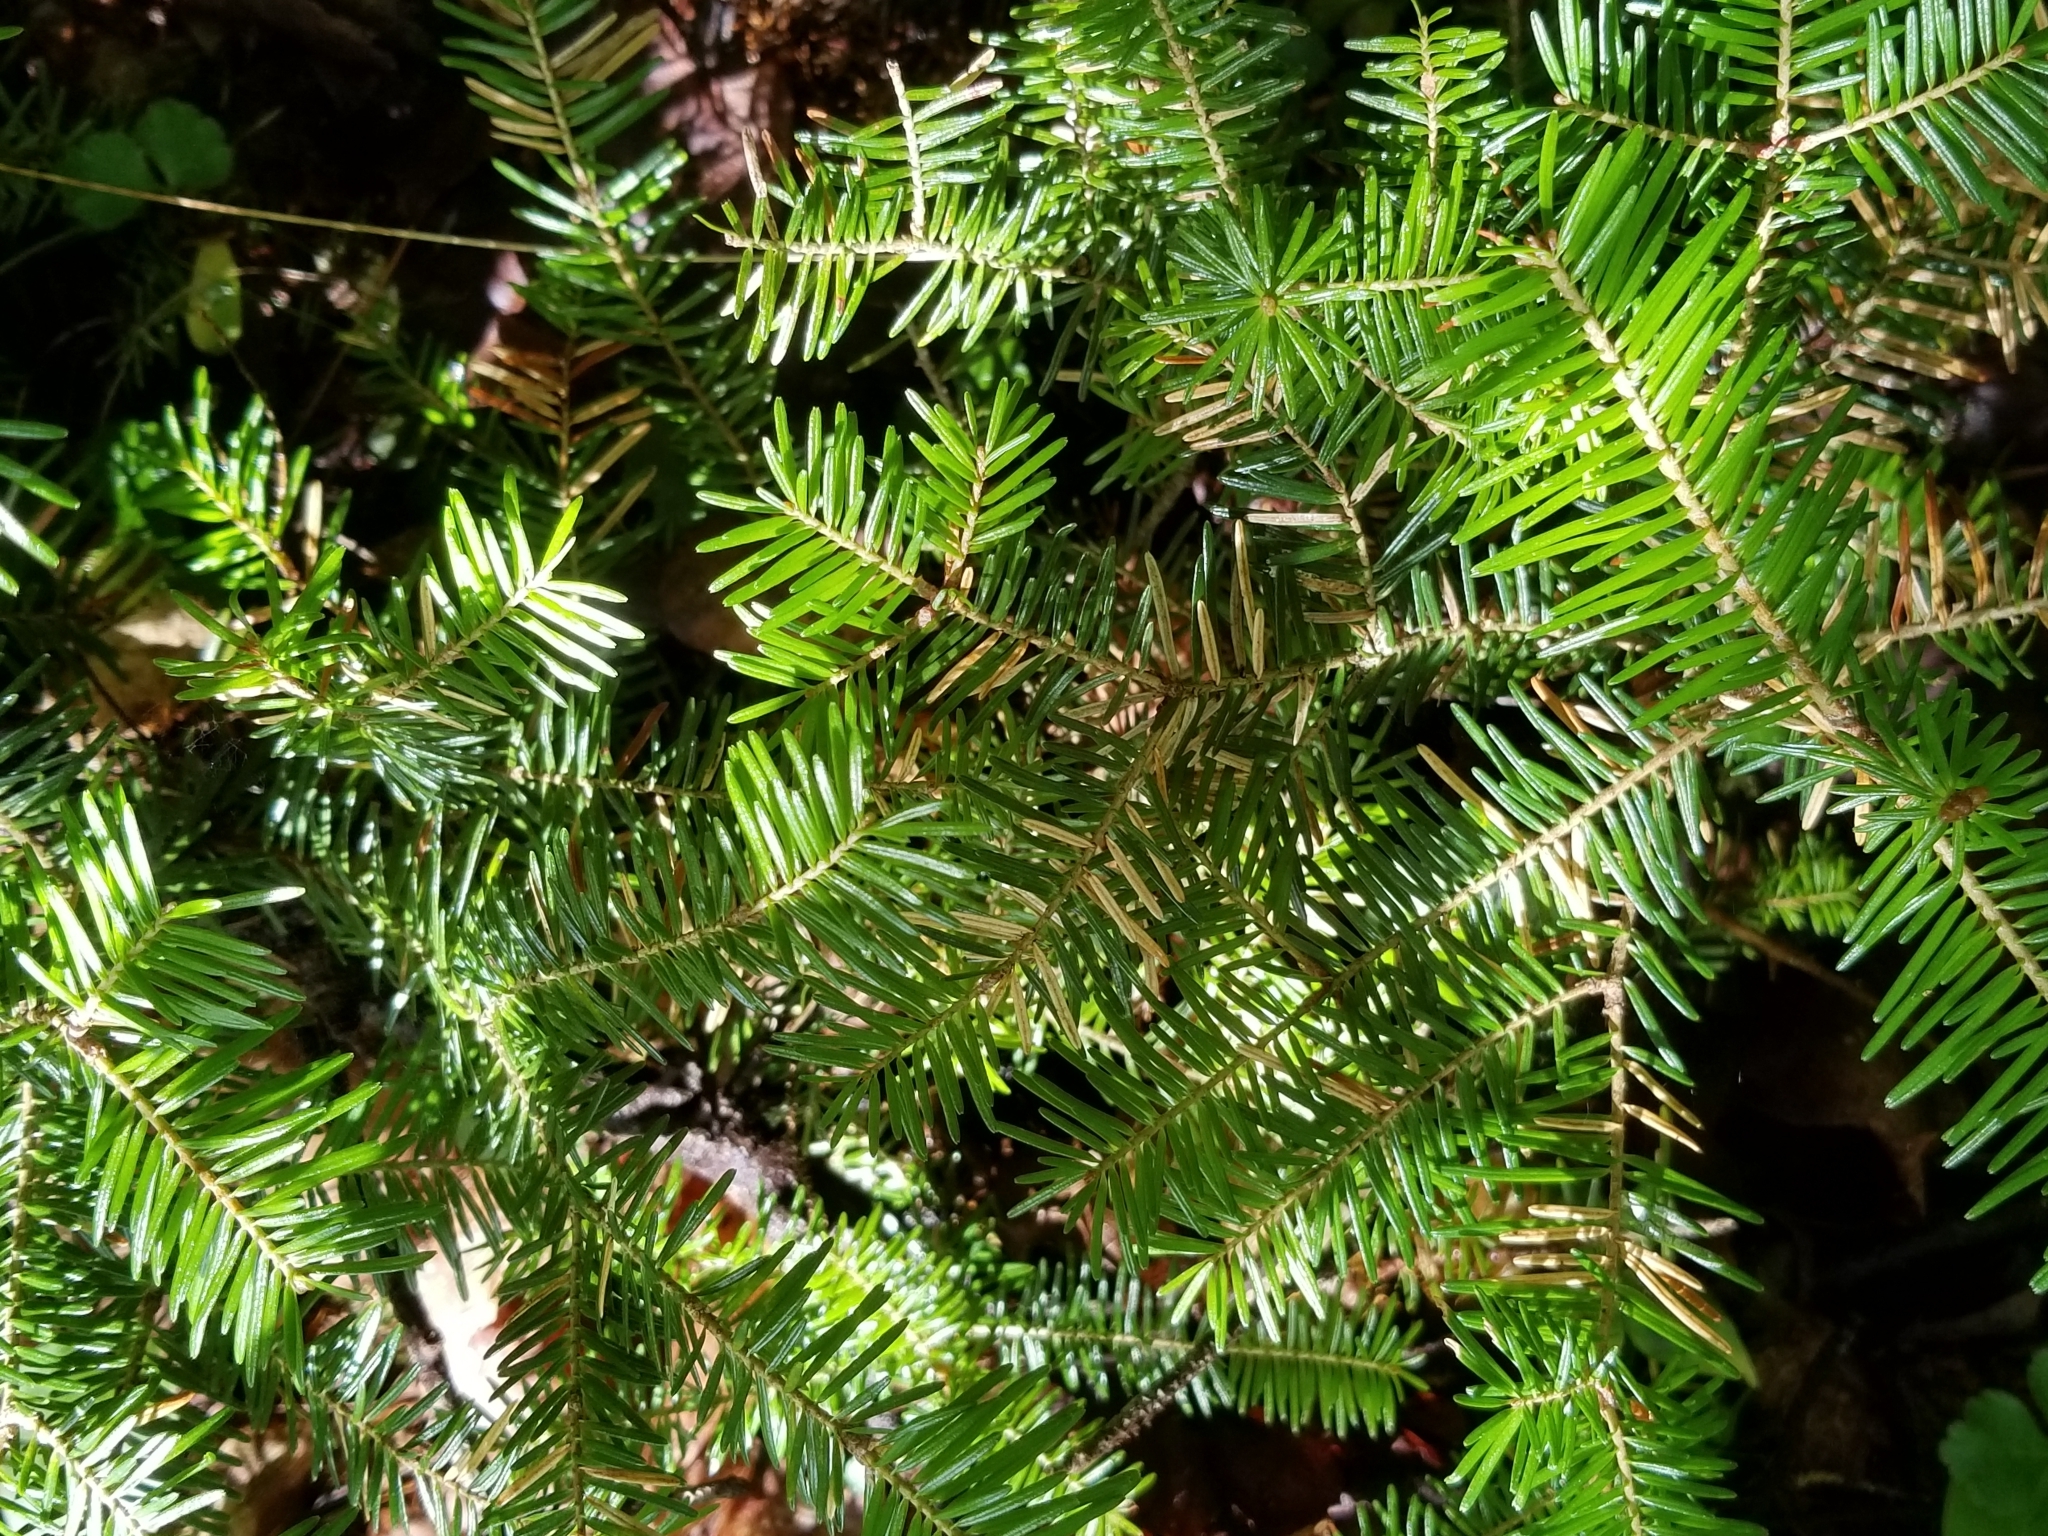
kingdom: Plantae
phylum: Tracheophyta
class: Pinopsida
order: Pinales
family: Pinaceae
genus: Abies
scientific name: Abies balsamea
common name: Balsam fir
